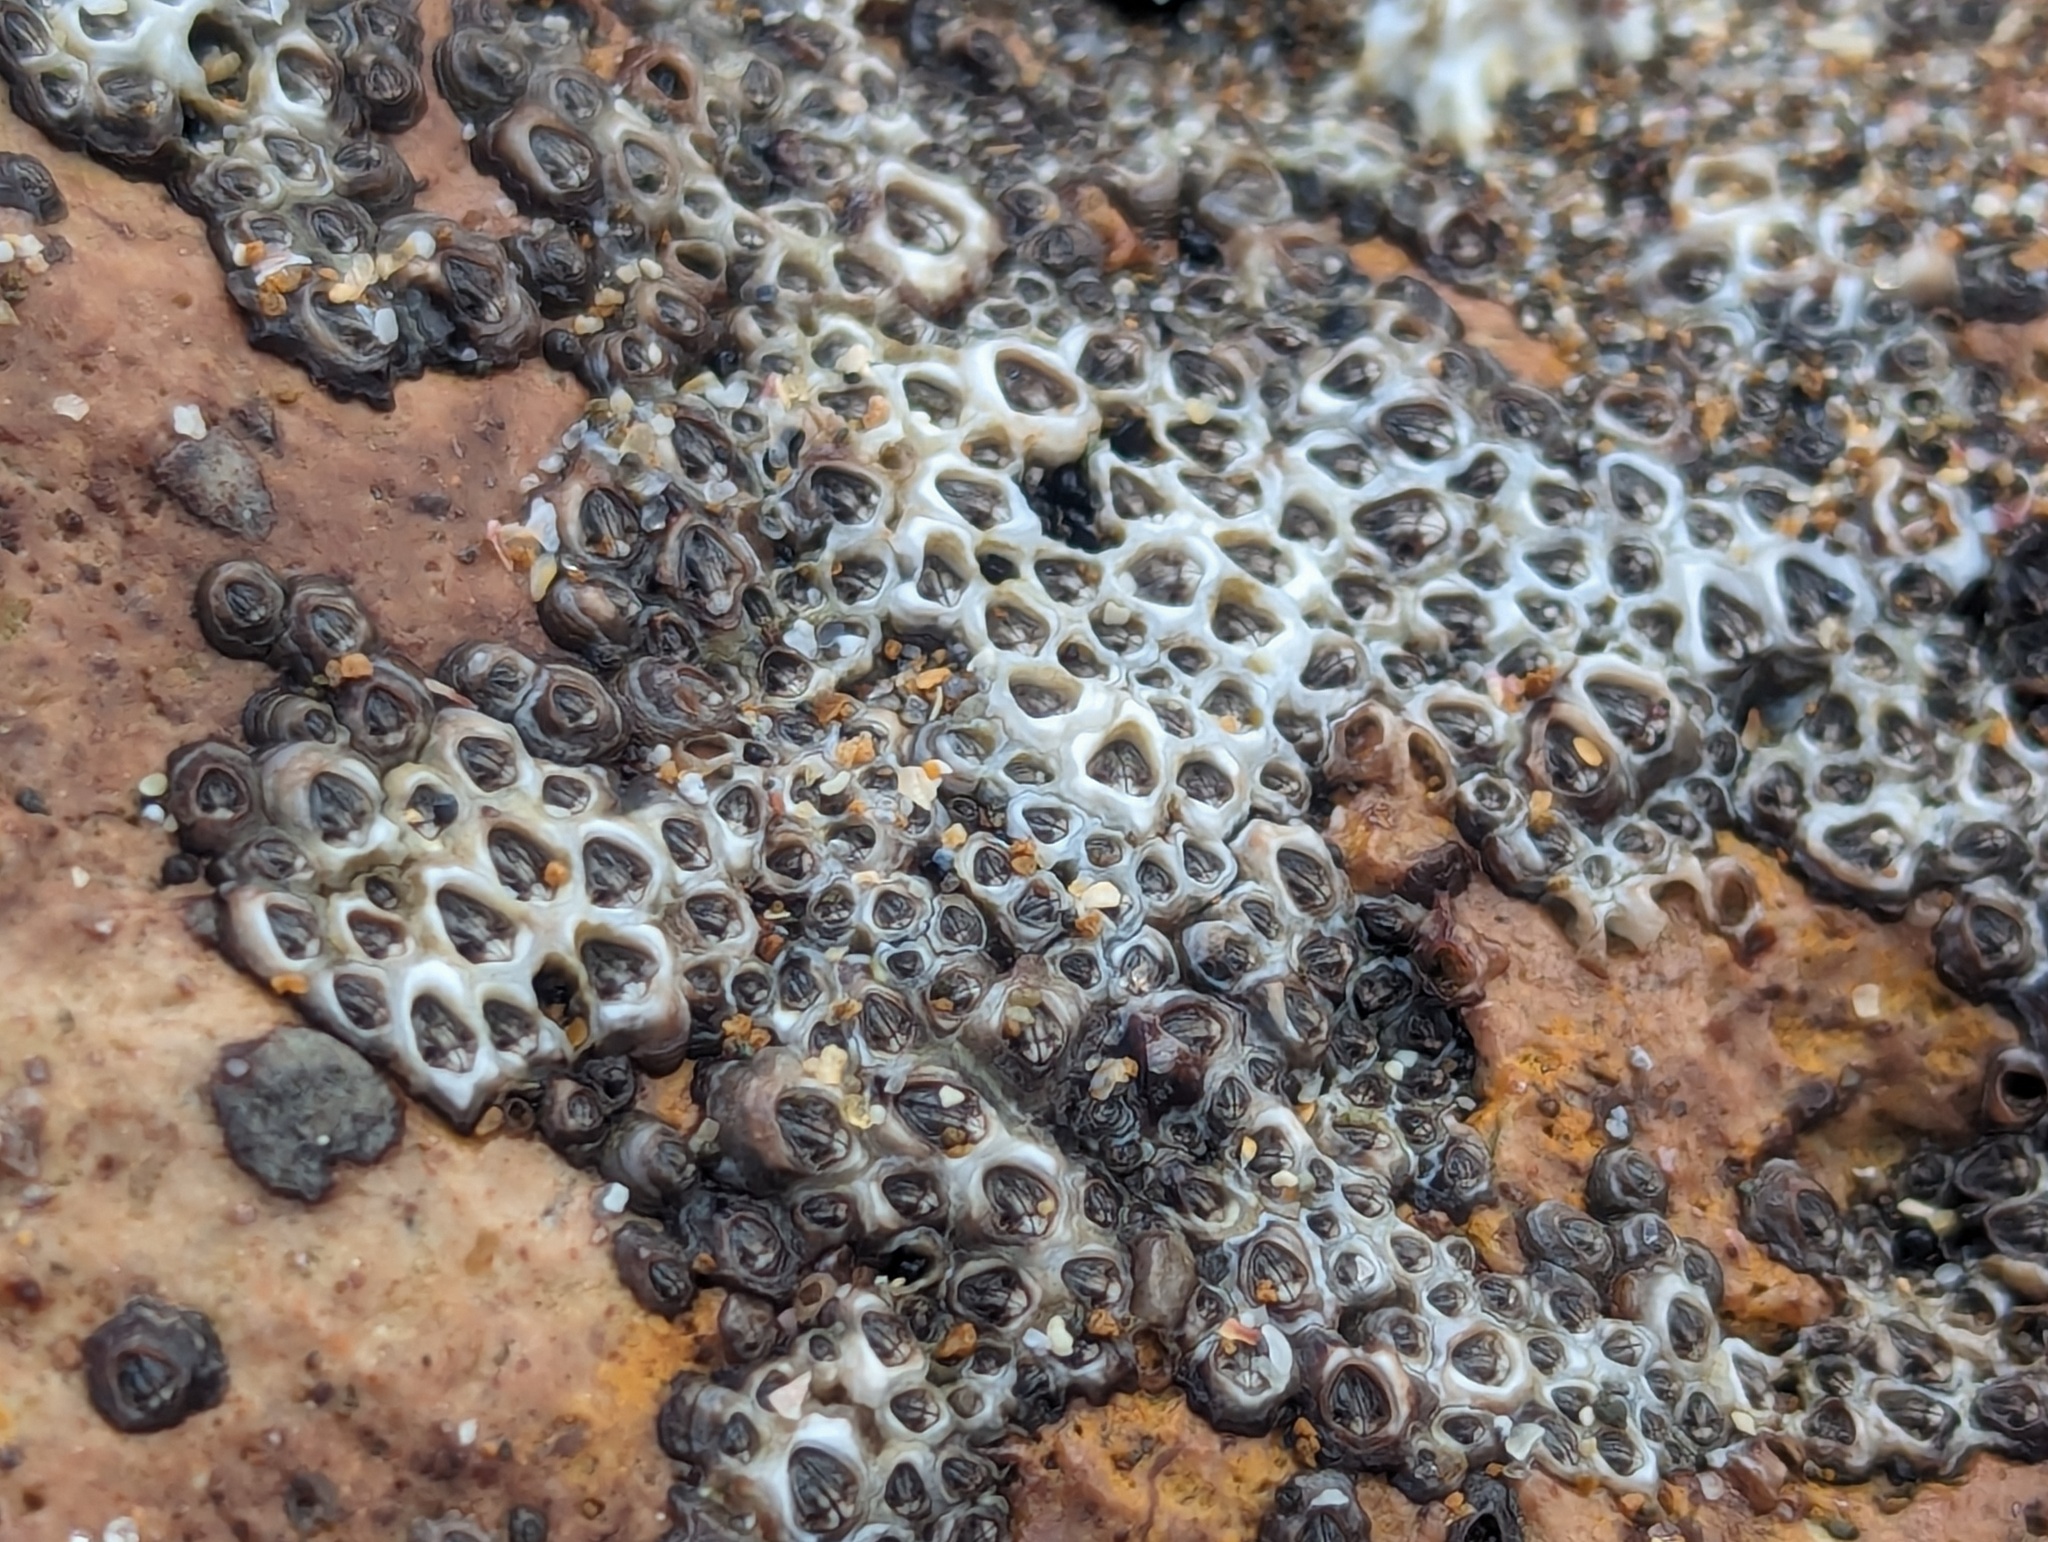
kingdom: Animalia
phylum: Arthropoda
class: Maxillopoda
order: Sessilia
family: Chthamalidae
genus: Chamaesipho
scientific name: Chamaesipho columna
